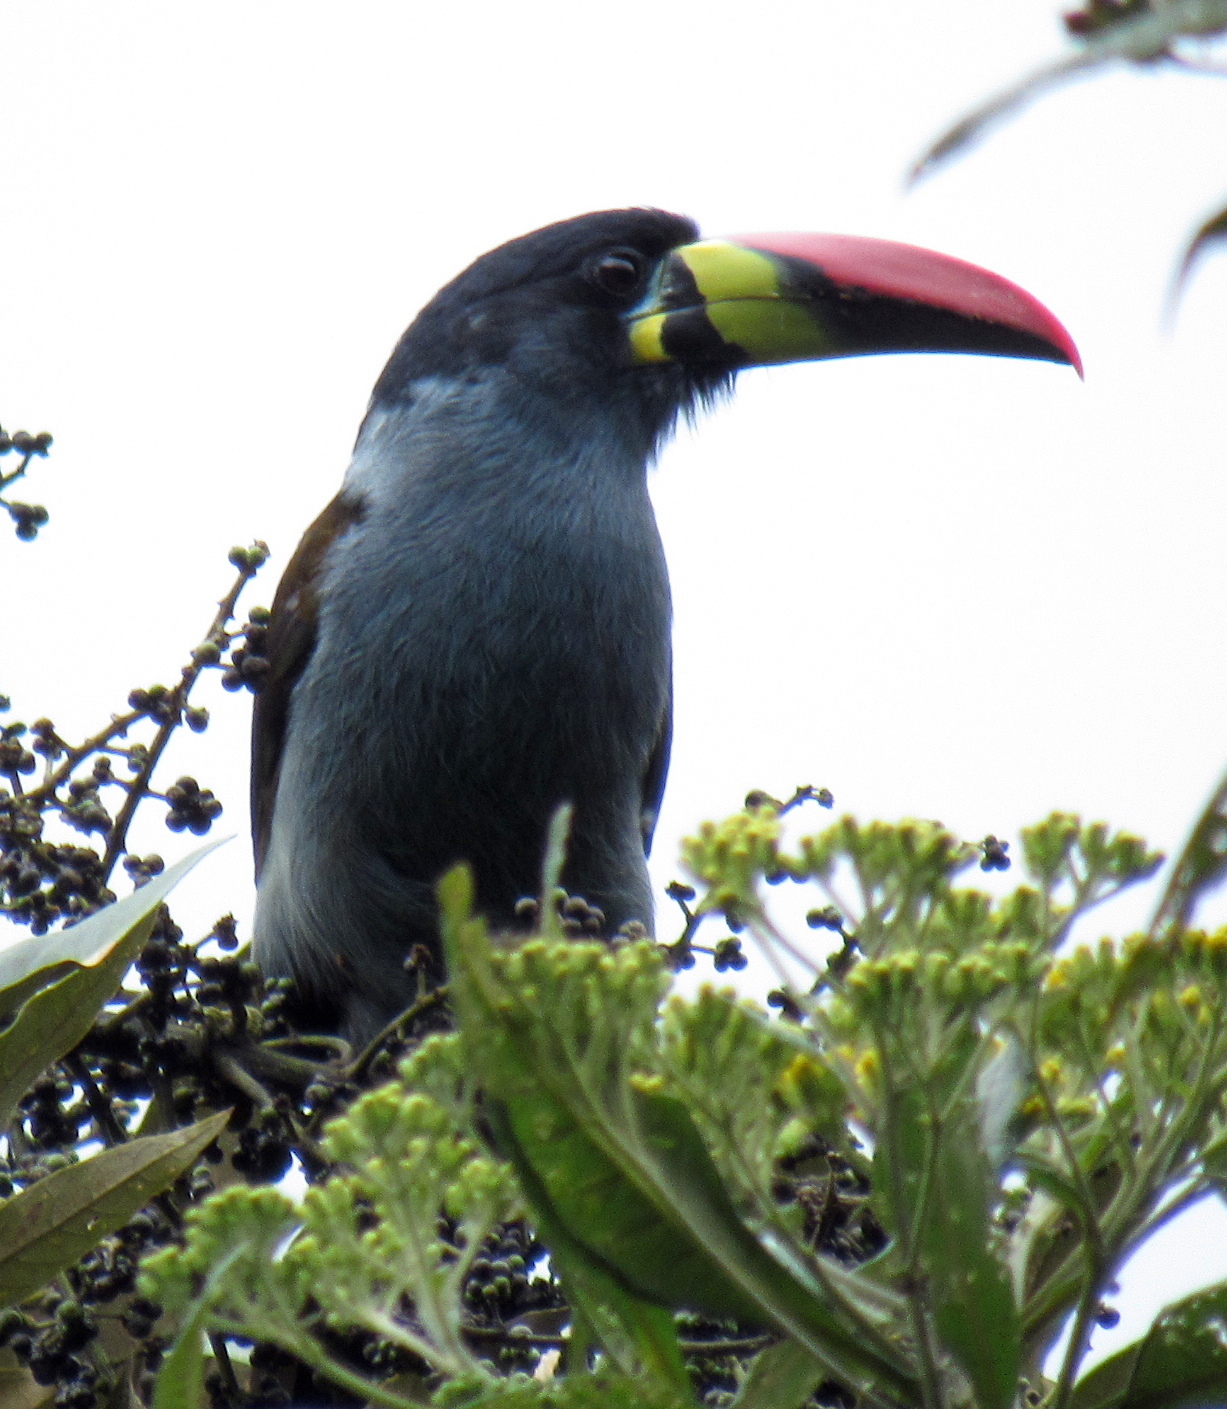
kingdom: Animalia
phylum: Chordata
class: Aves
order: Piciformes
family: Ramphastidae
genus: Andigena
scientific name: Andigena hypoglauca
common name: Grey-breasted mountain toucan
